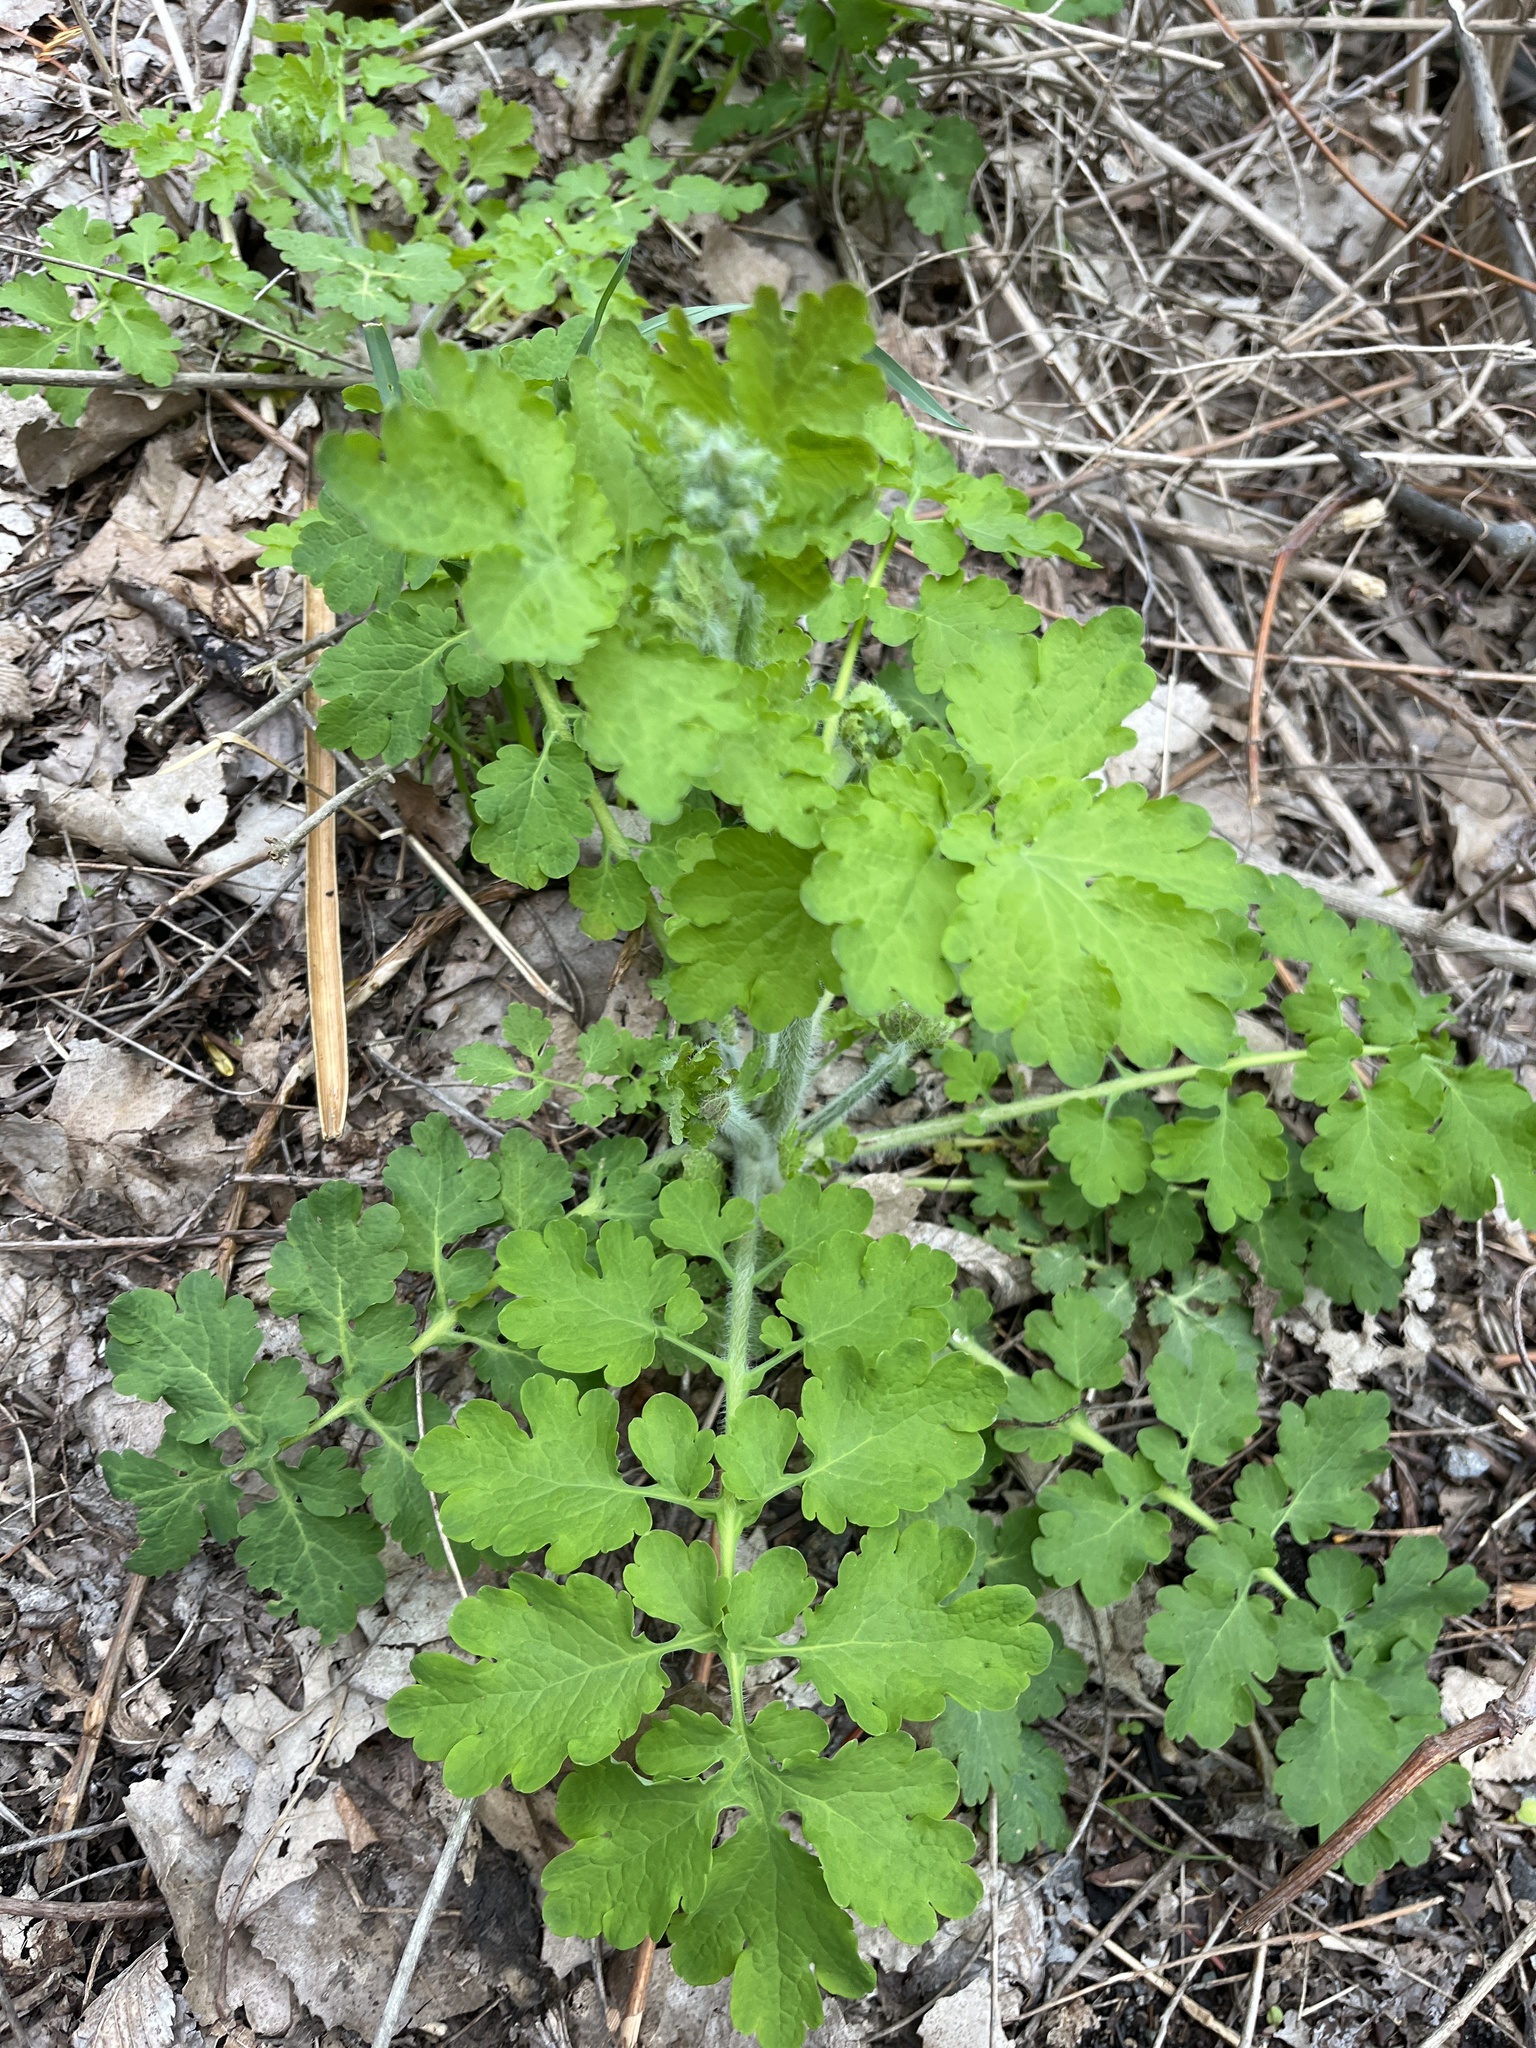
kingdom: Plantae
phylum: Tracheophyta
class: Magnoliopsida
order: Ranunculales
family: Papaveraceae
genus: Chelidonium
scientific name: Chelidonium majus
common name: Greater celandine
